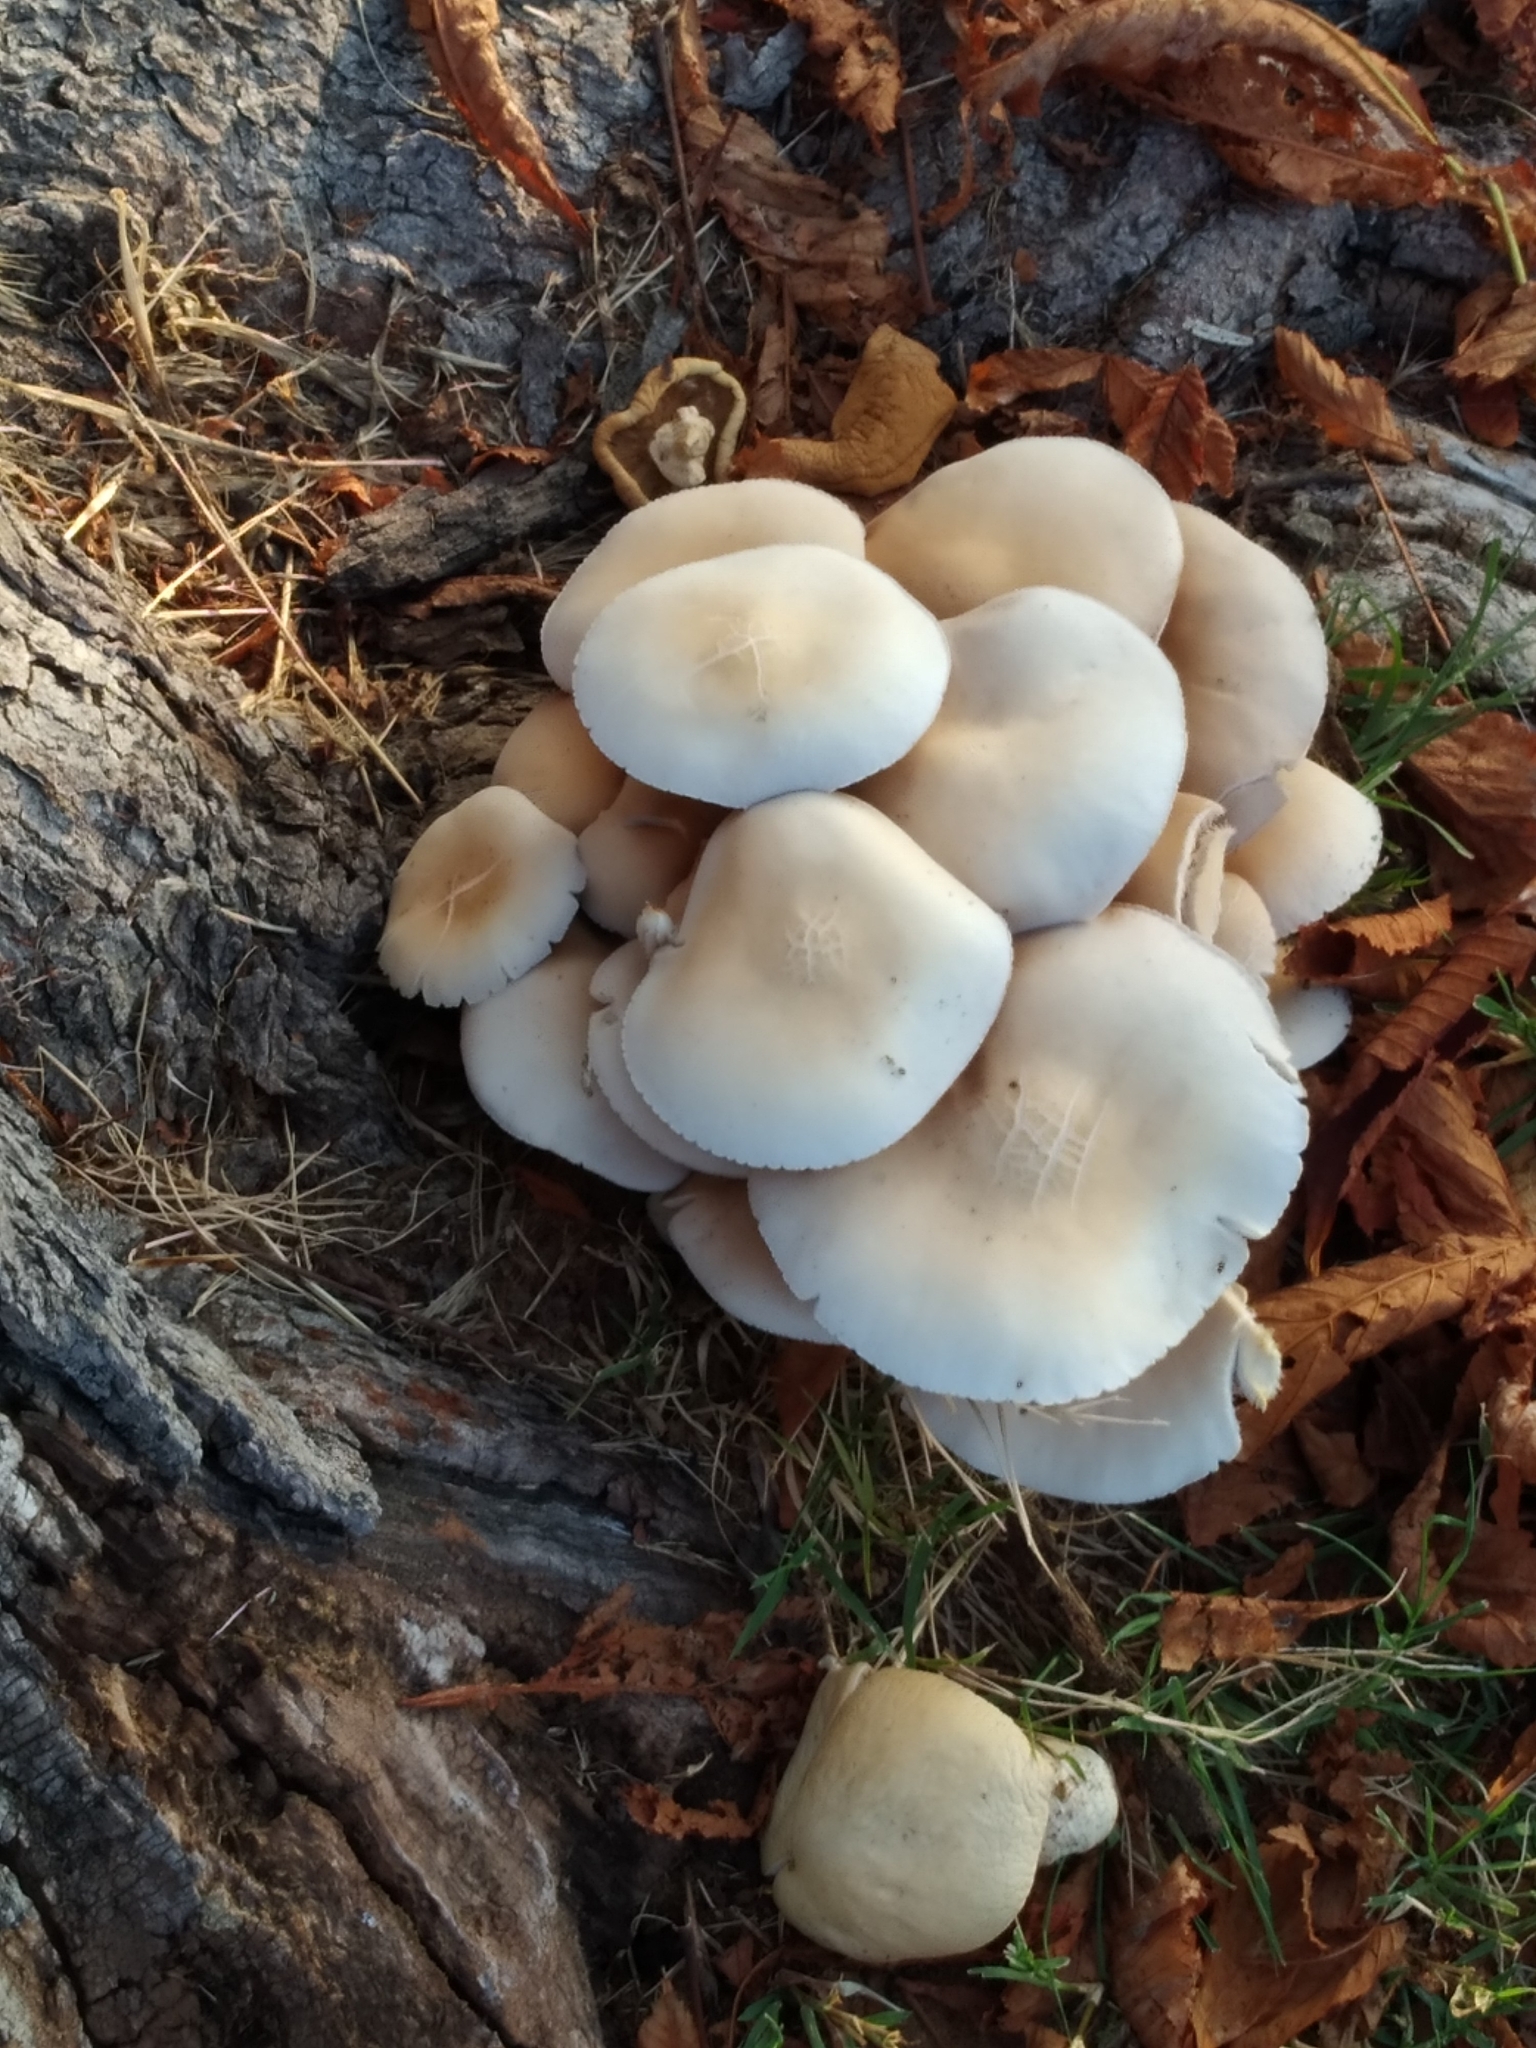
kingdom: Fungi
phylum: Basidiomycota
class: Agaricomycetes
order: Agaricales
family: Tubariaceae
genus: Cyclocybe
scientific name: Cyclocybe cylindracea
